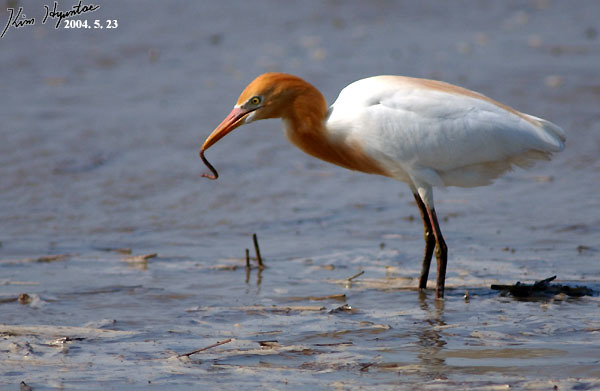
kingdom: Animalia
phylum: Chordata
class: Aves
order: Pelecaniformes
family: Ardeidae
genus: Bubulcus
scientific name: Bubulcus coromandus
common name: Eastern cattle egret
